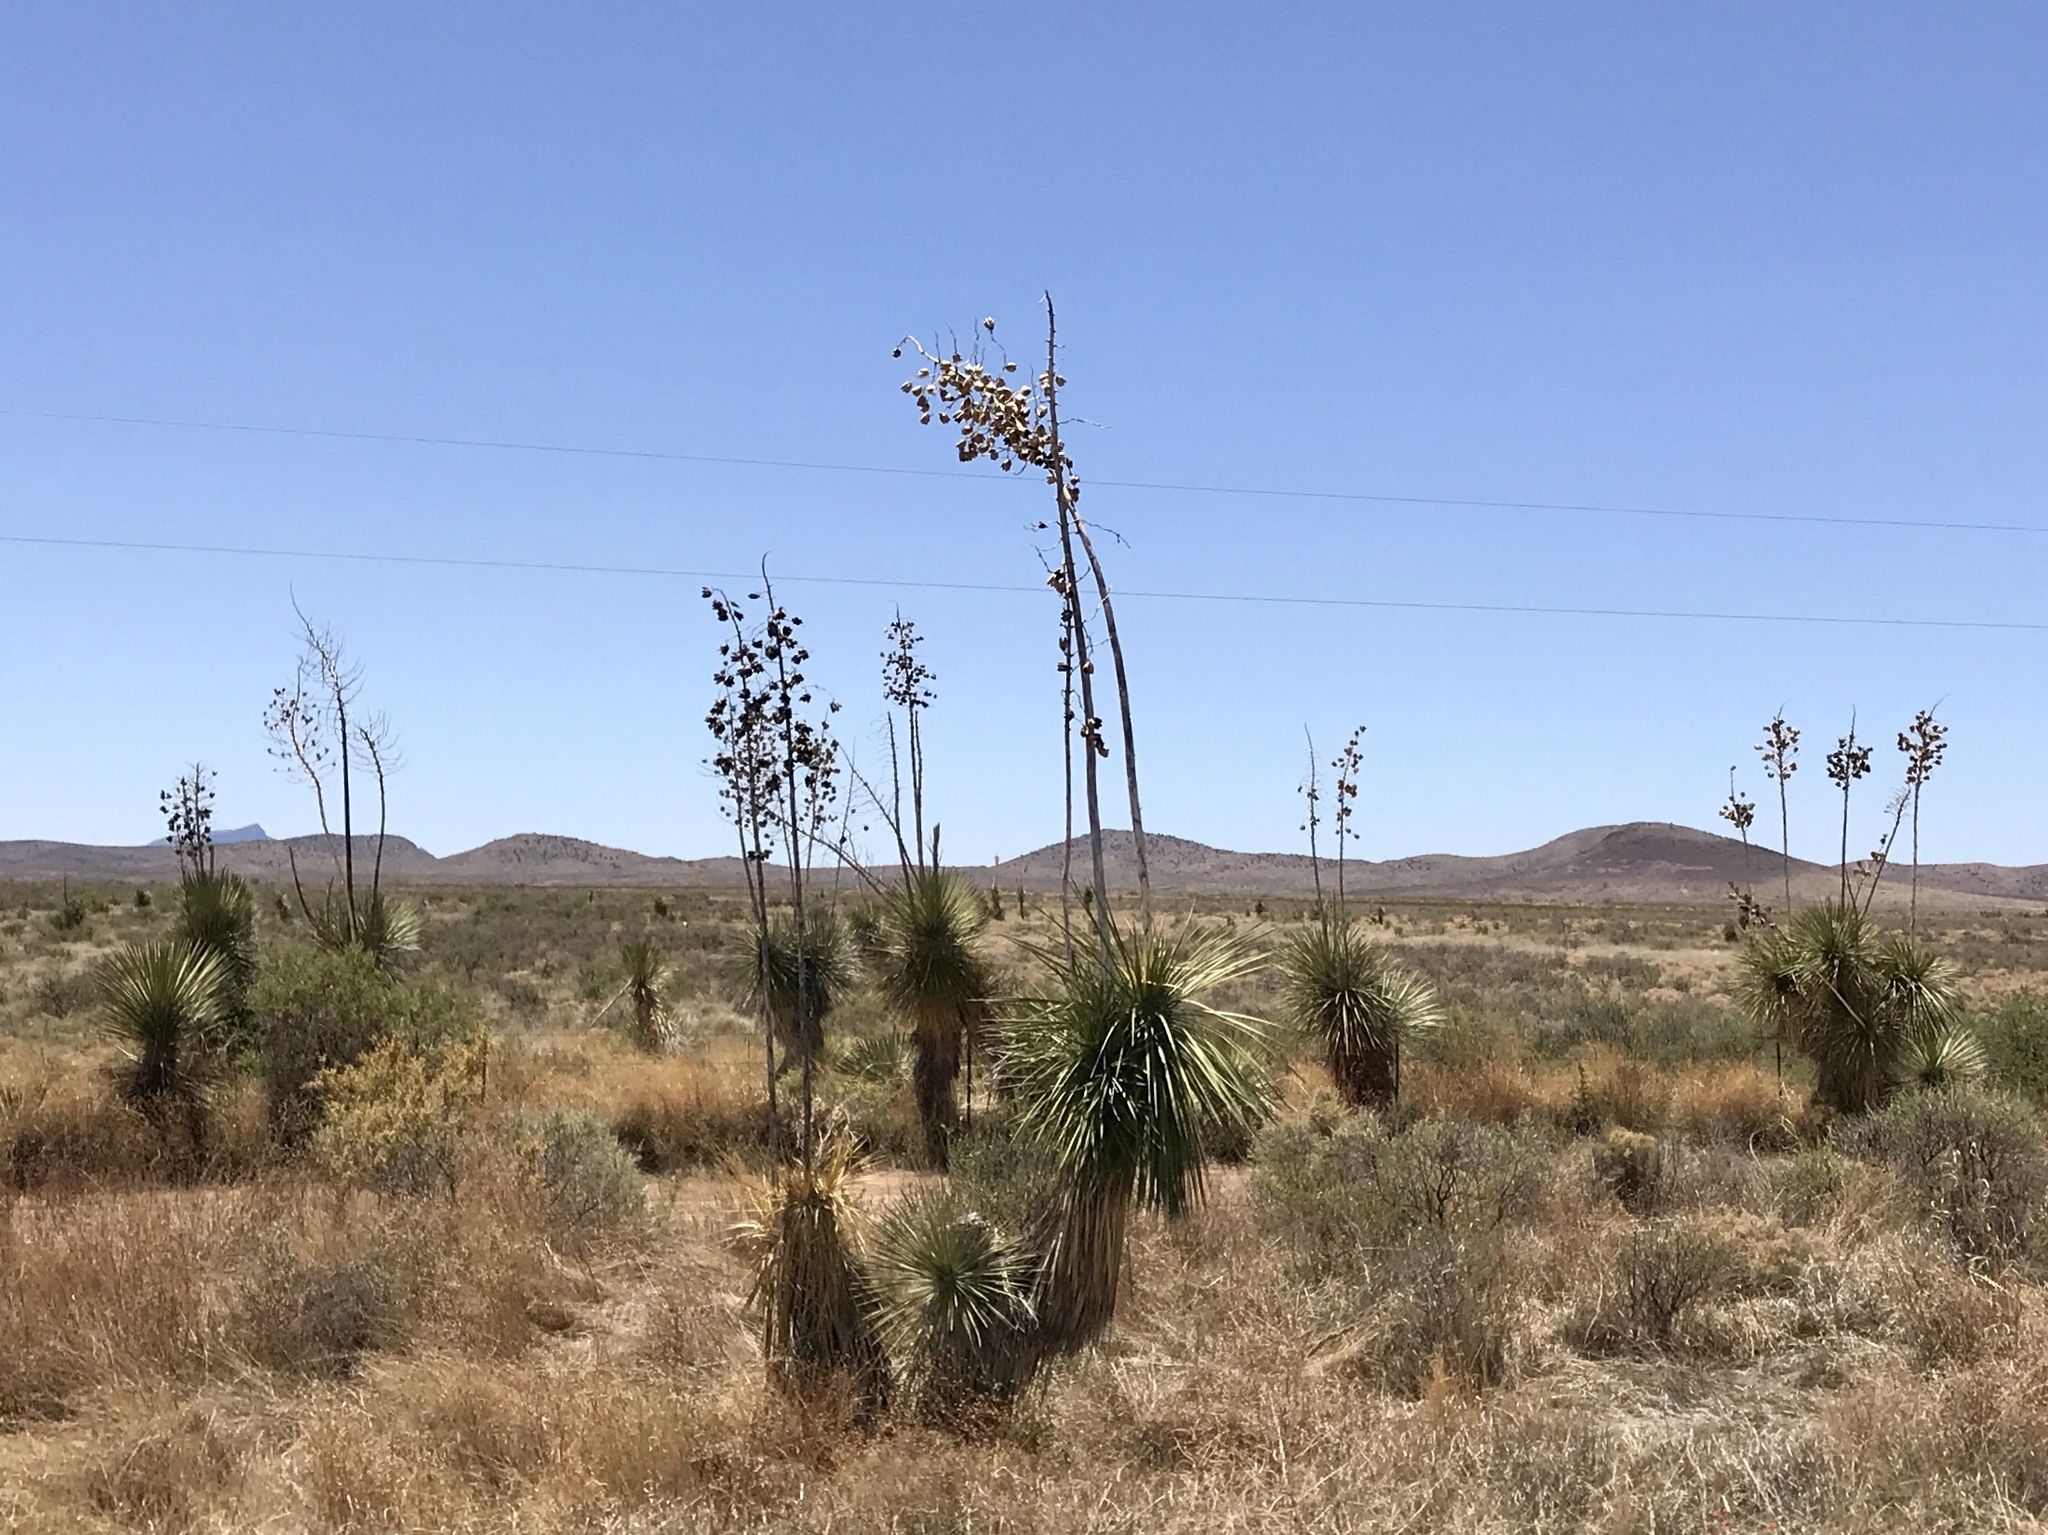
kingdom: Plantae
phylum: Tracheophyta
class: Liliopsida
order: Asparagales
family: Asparagaceae
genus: Yucca
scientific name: Yucca elata
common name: Palmella
